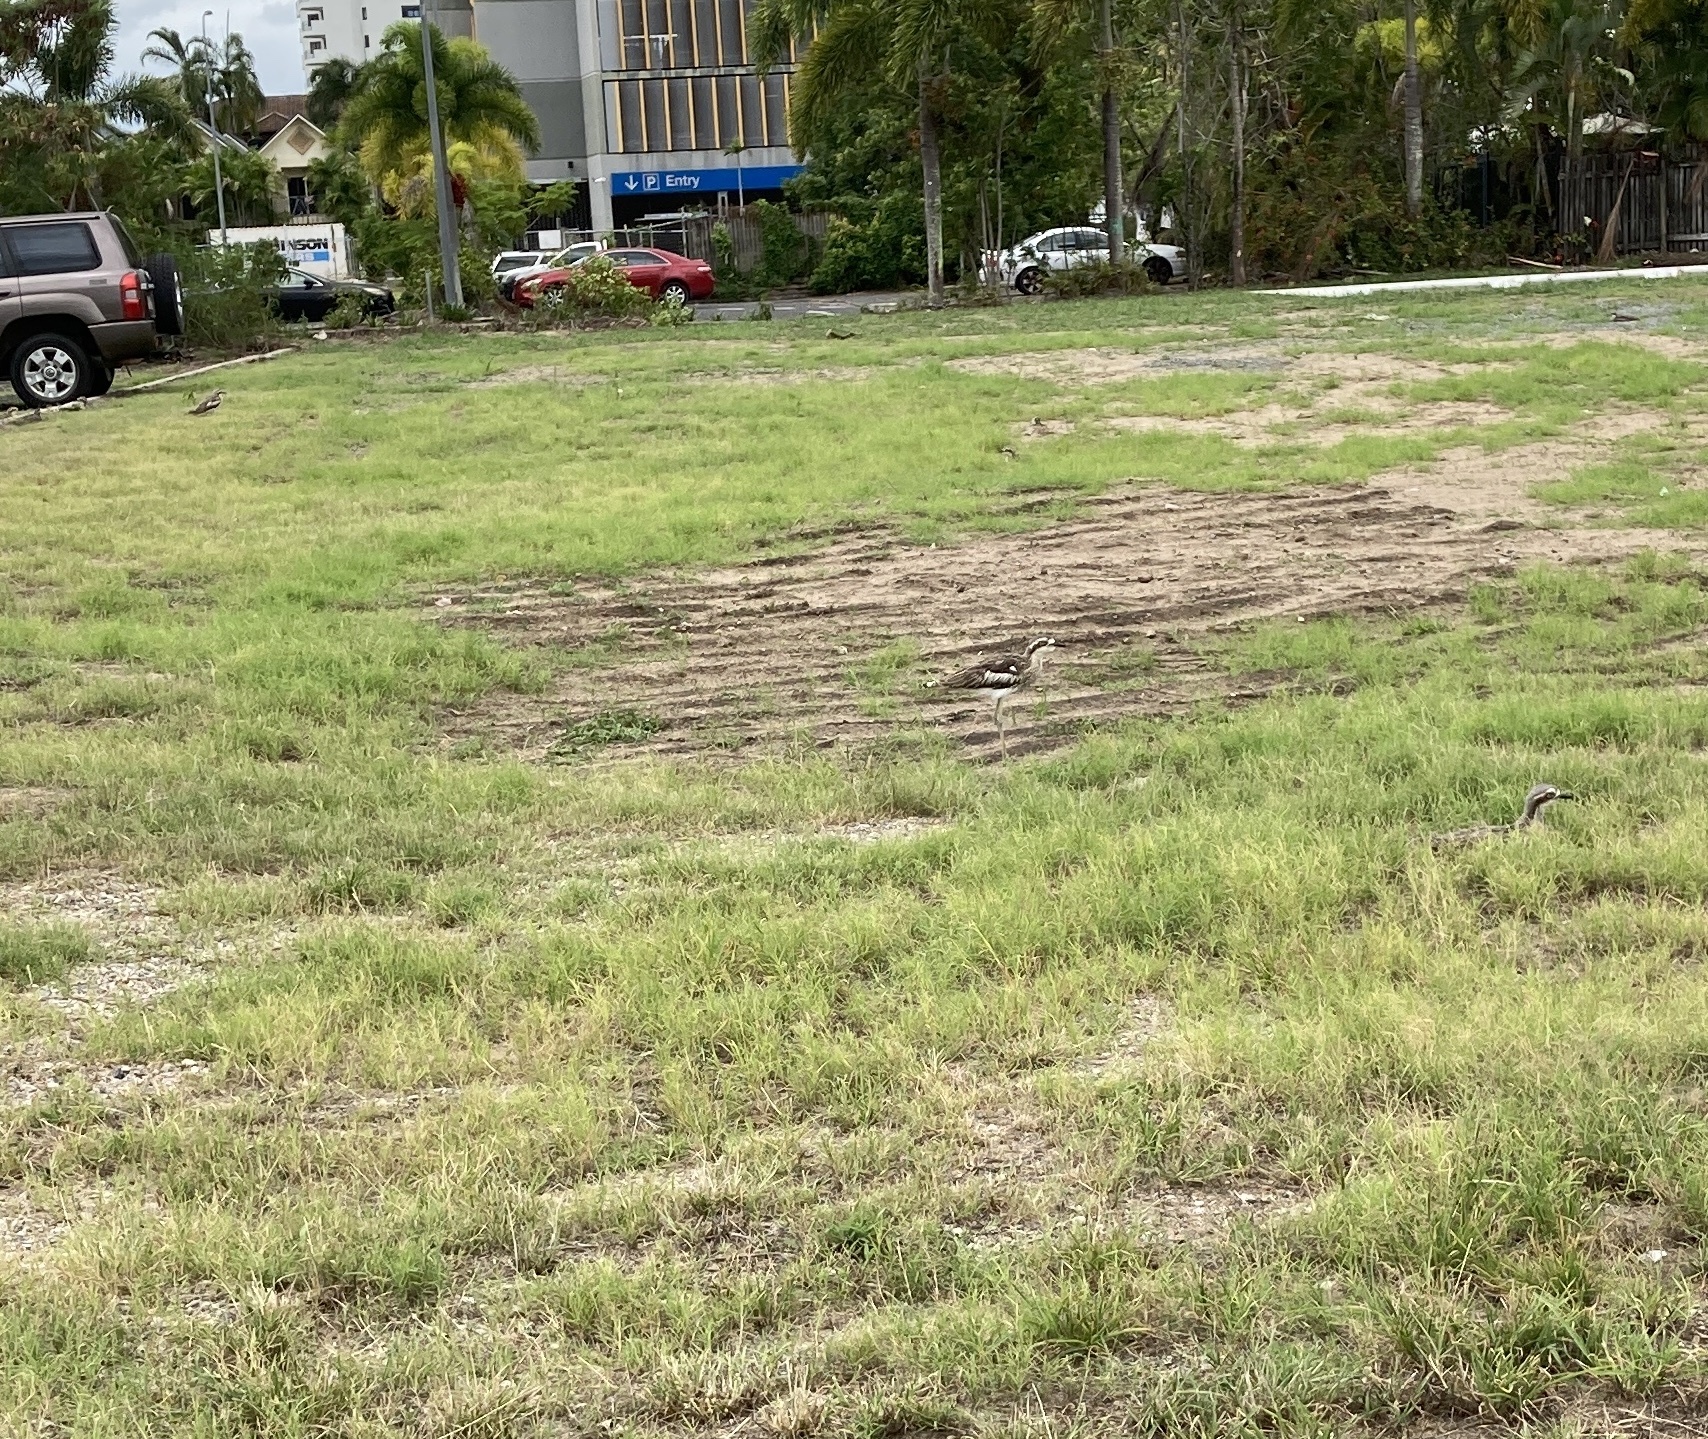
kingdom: Animalia
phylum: Chordata
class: Aves
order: Charadriiformes
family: Burhinidae
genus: Burhinus
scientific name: Burhinus grallarius
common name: Bush stone-curlew
